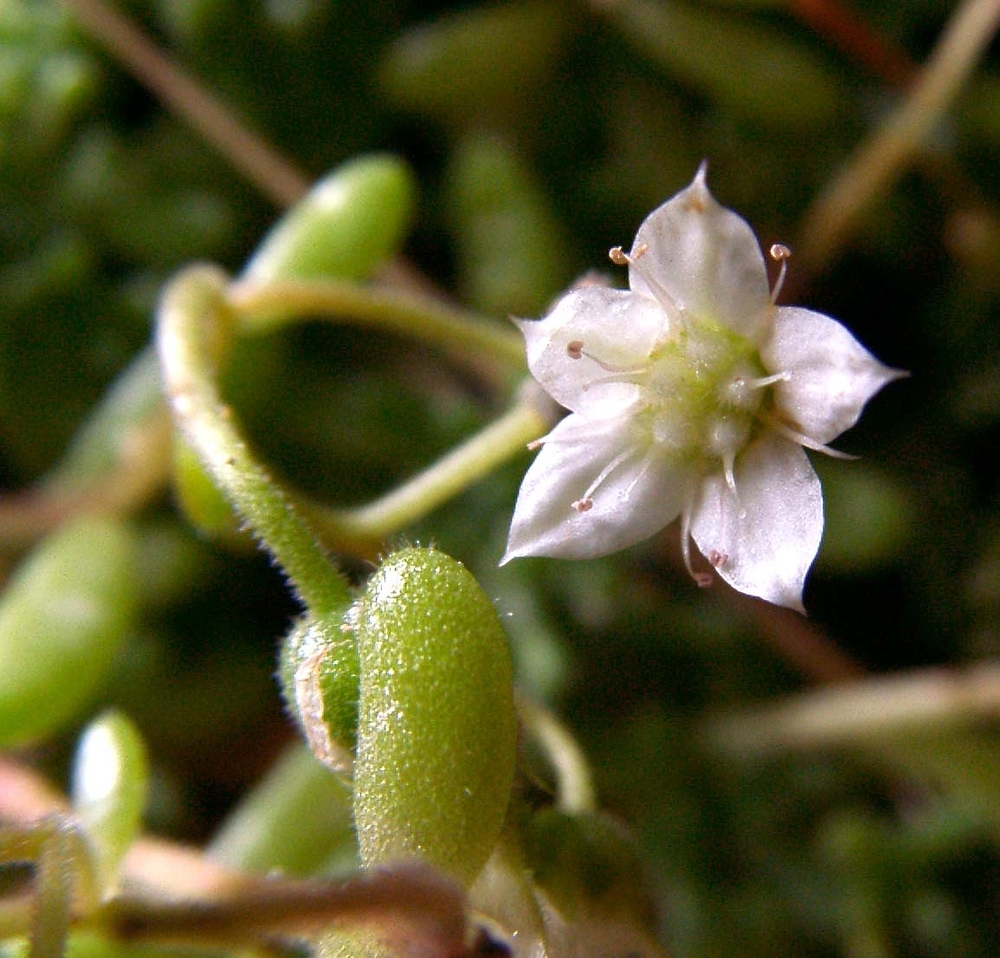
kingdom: Plantae
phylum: Tracheophyta
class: Magnoliopsida
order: Saxifragales
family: Crassulaceae
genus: Sedum
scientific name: Sedum hirsutum
